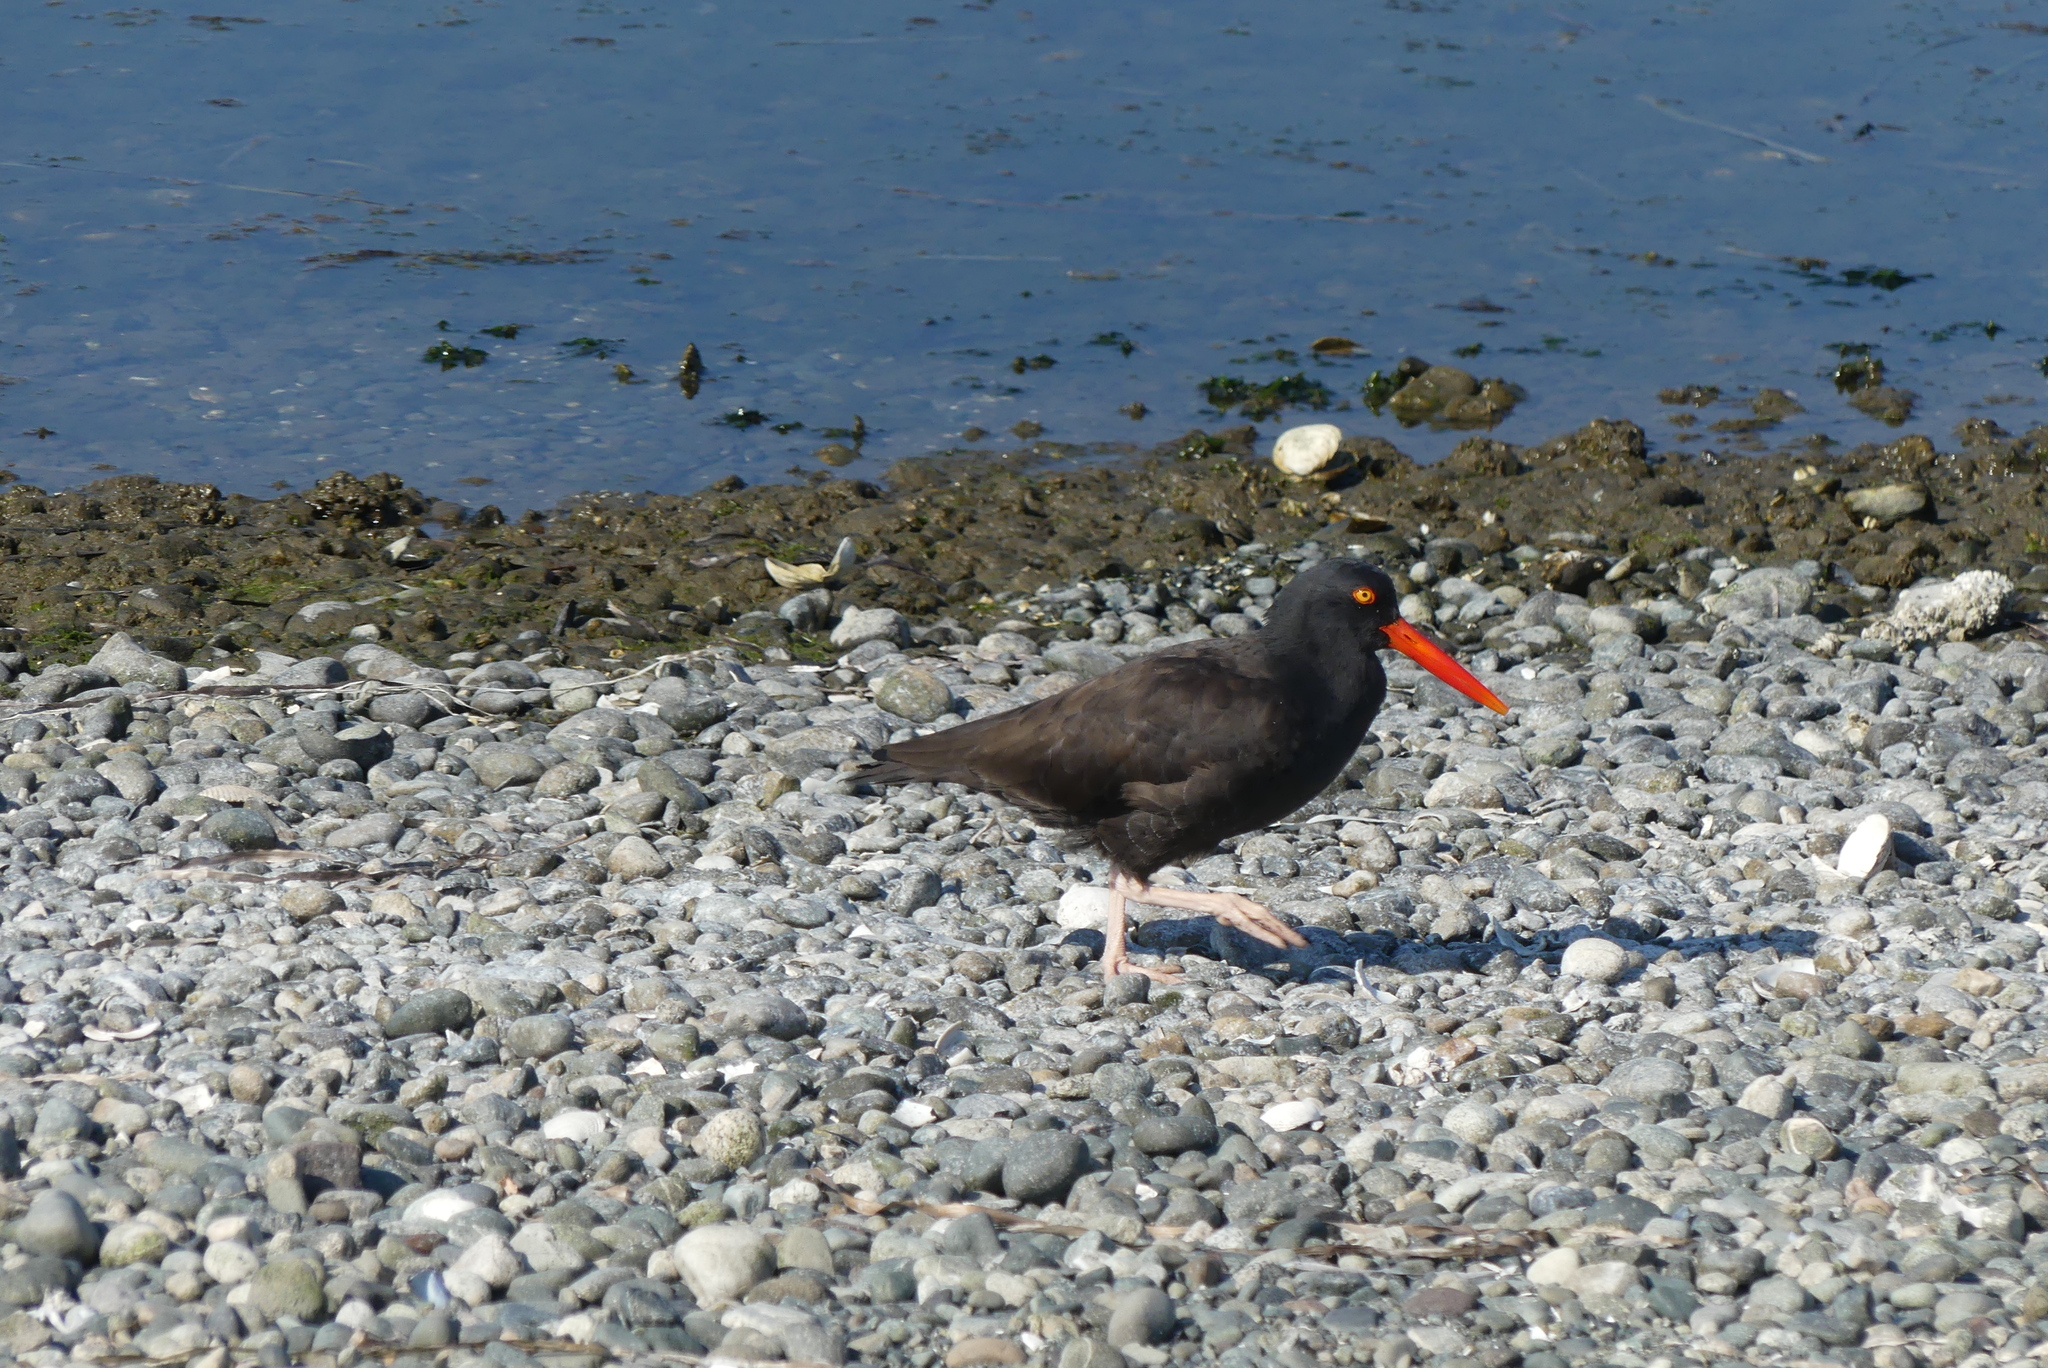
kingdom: Animalia
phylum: Chordata
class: Aves
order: Charadriiformes
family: Haematopodidae
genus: Haematopus
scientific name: Haematopus bachmani
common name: Black oystercatcher
